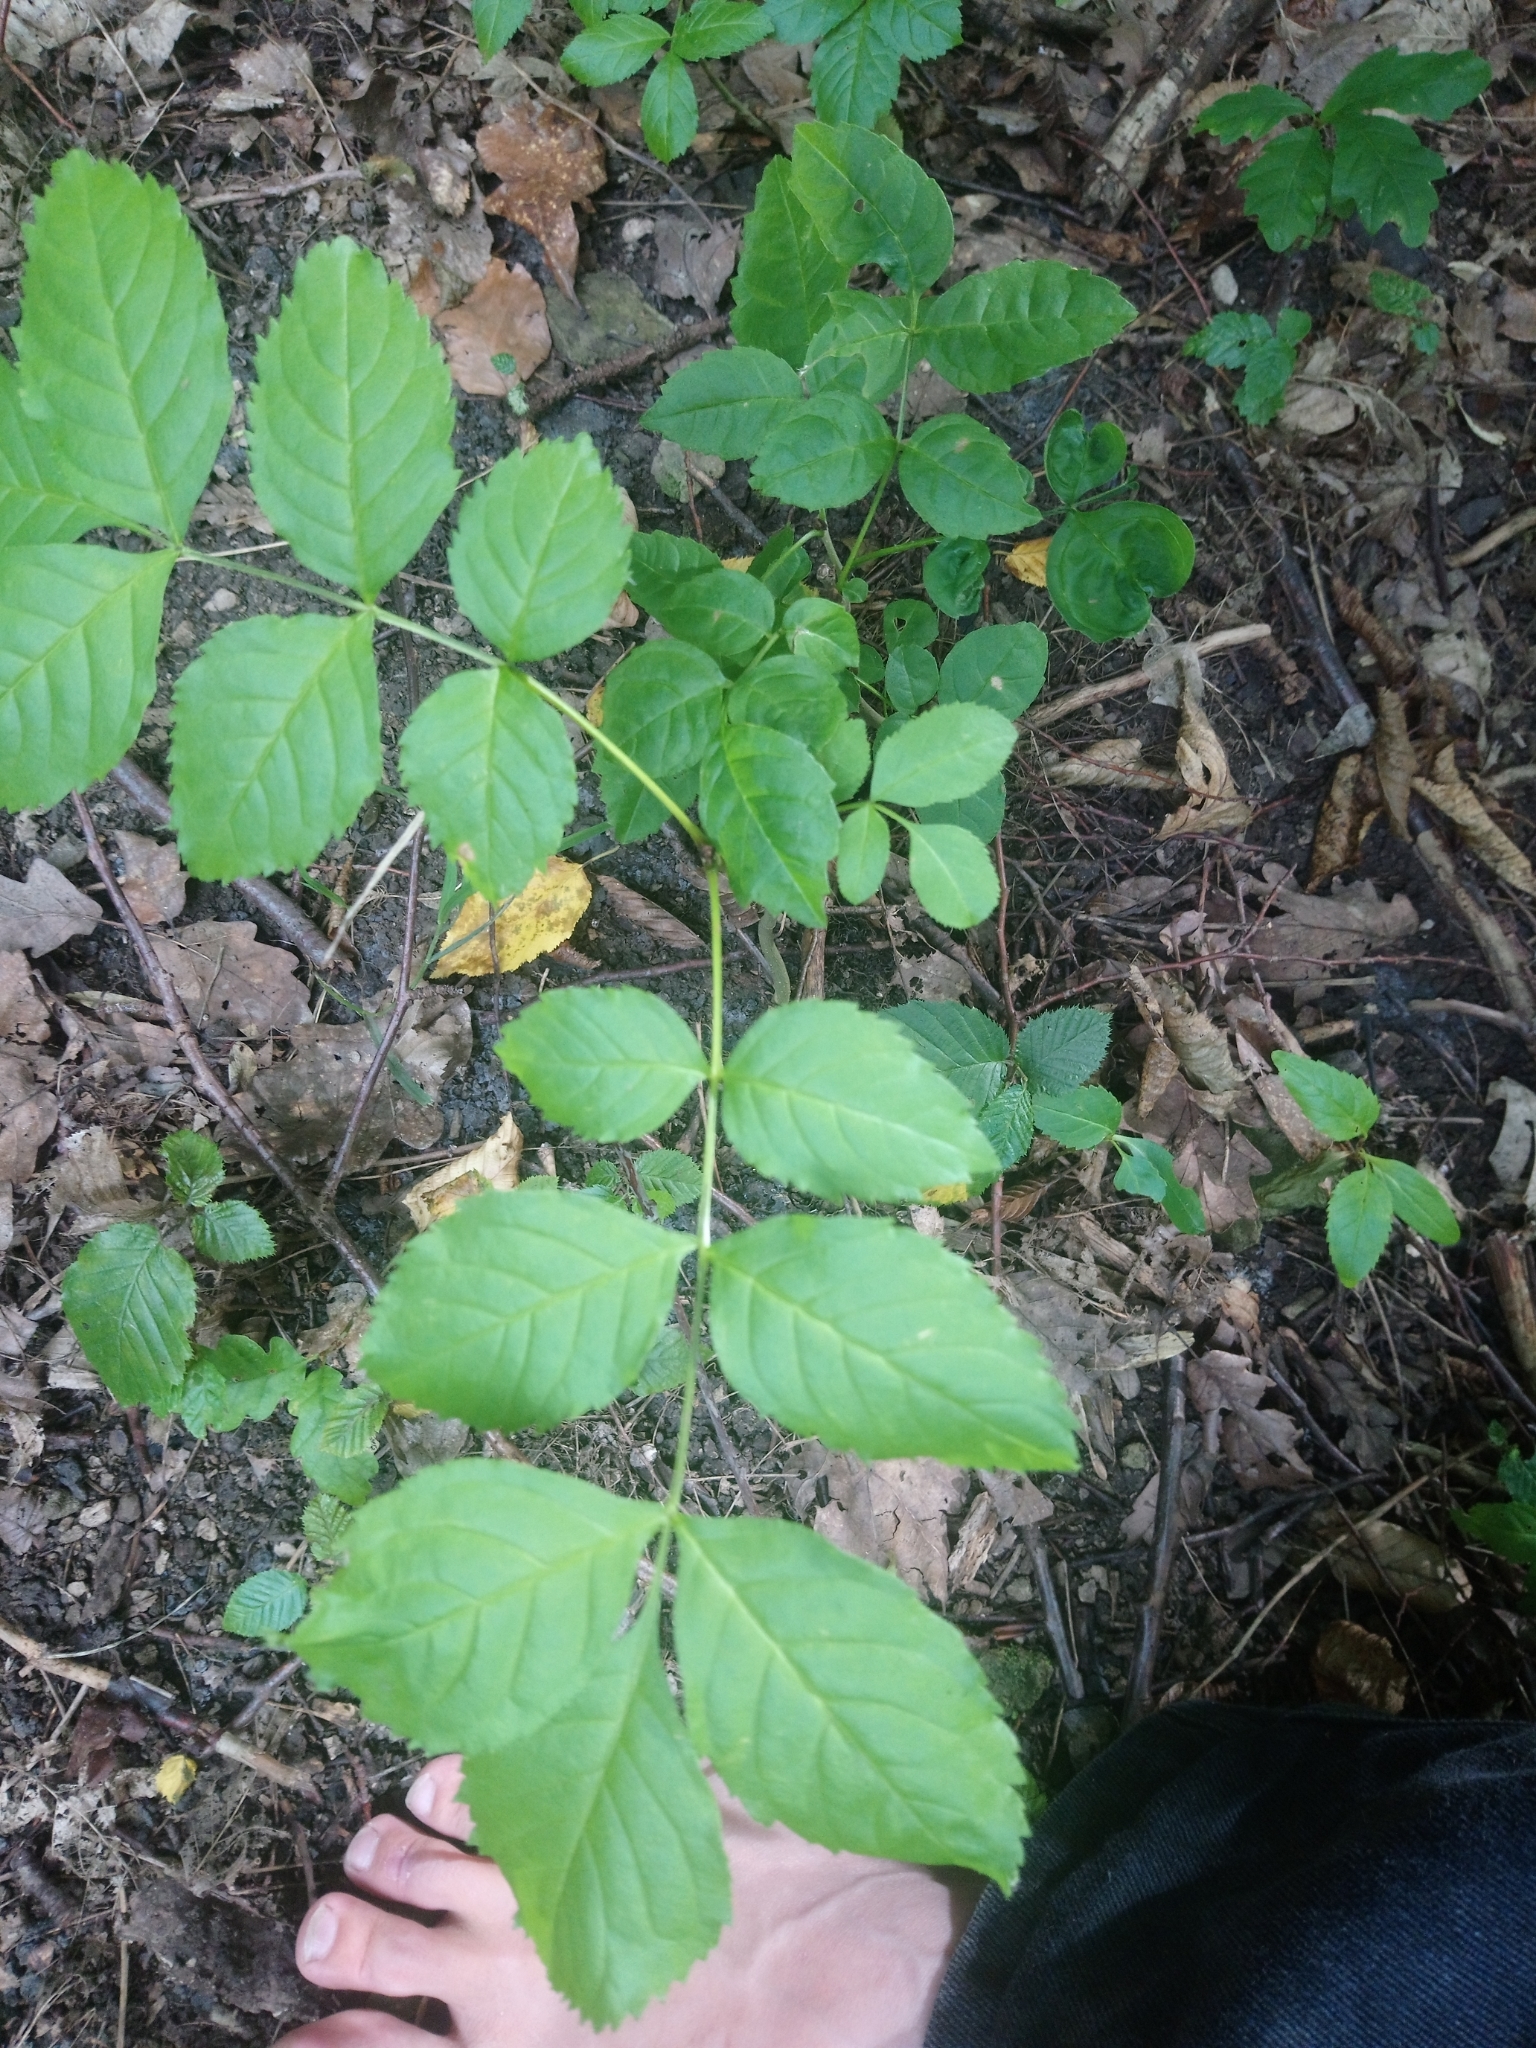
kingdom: Plantae
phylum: Tracheophyta
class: Magnoliopsida
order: Lamiales
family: Oleaceae
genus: Fraxinus
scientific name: Fraxinus excelsior
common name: European ash
